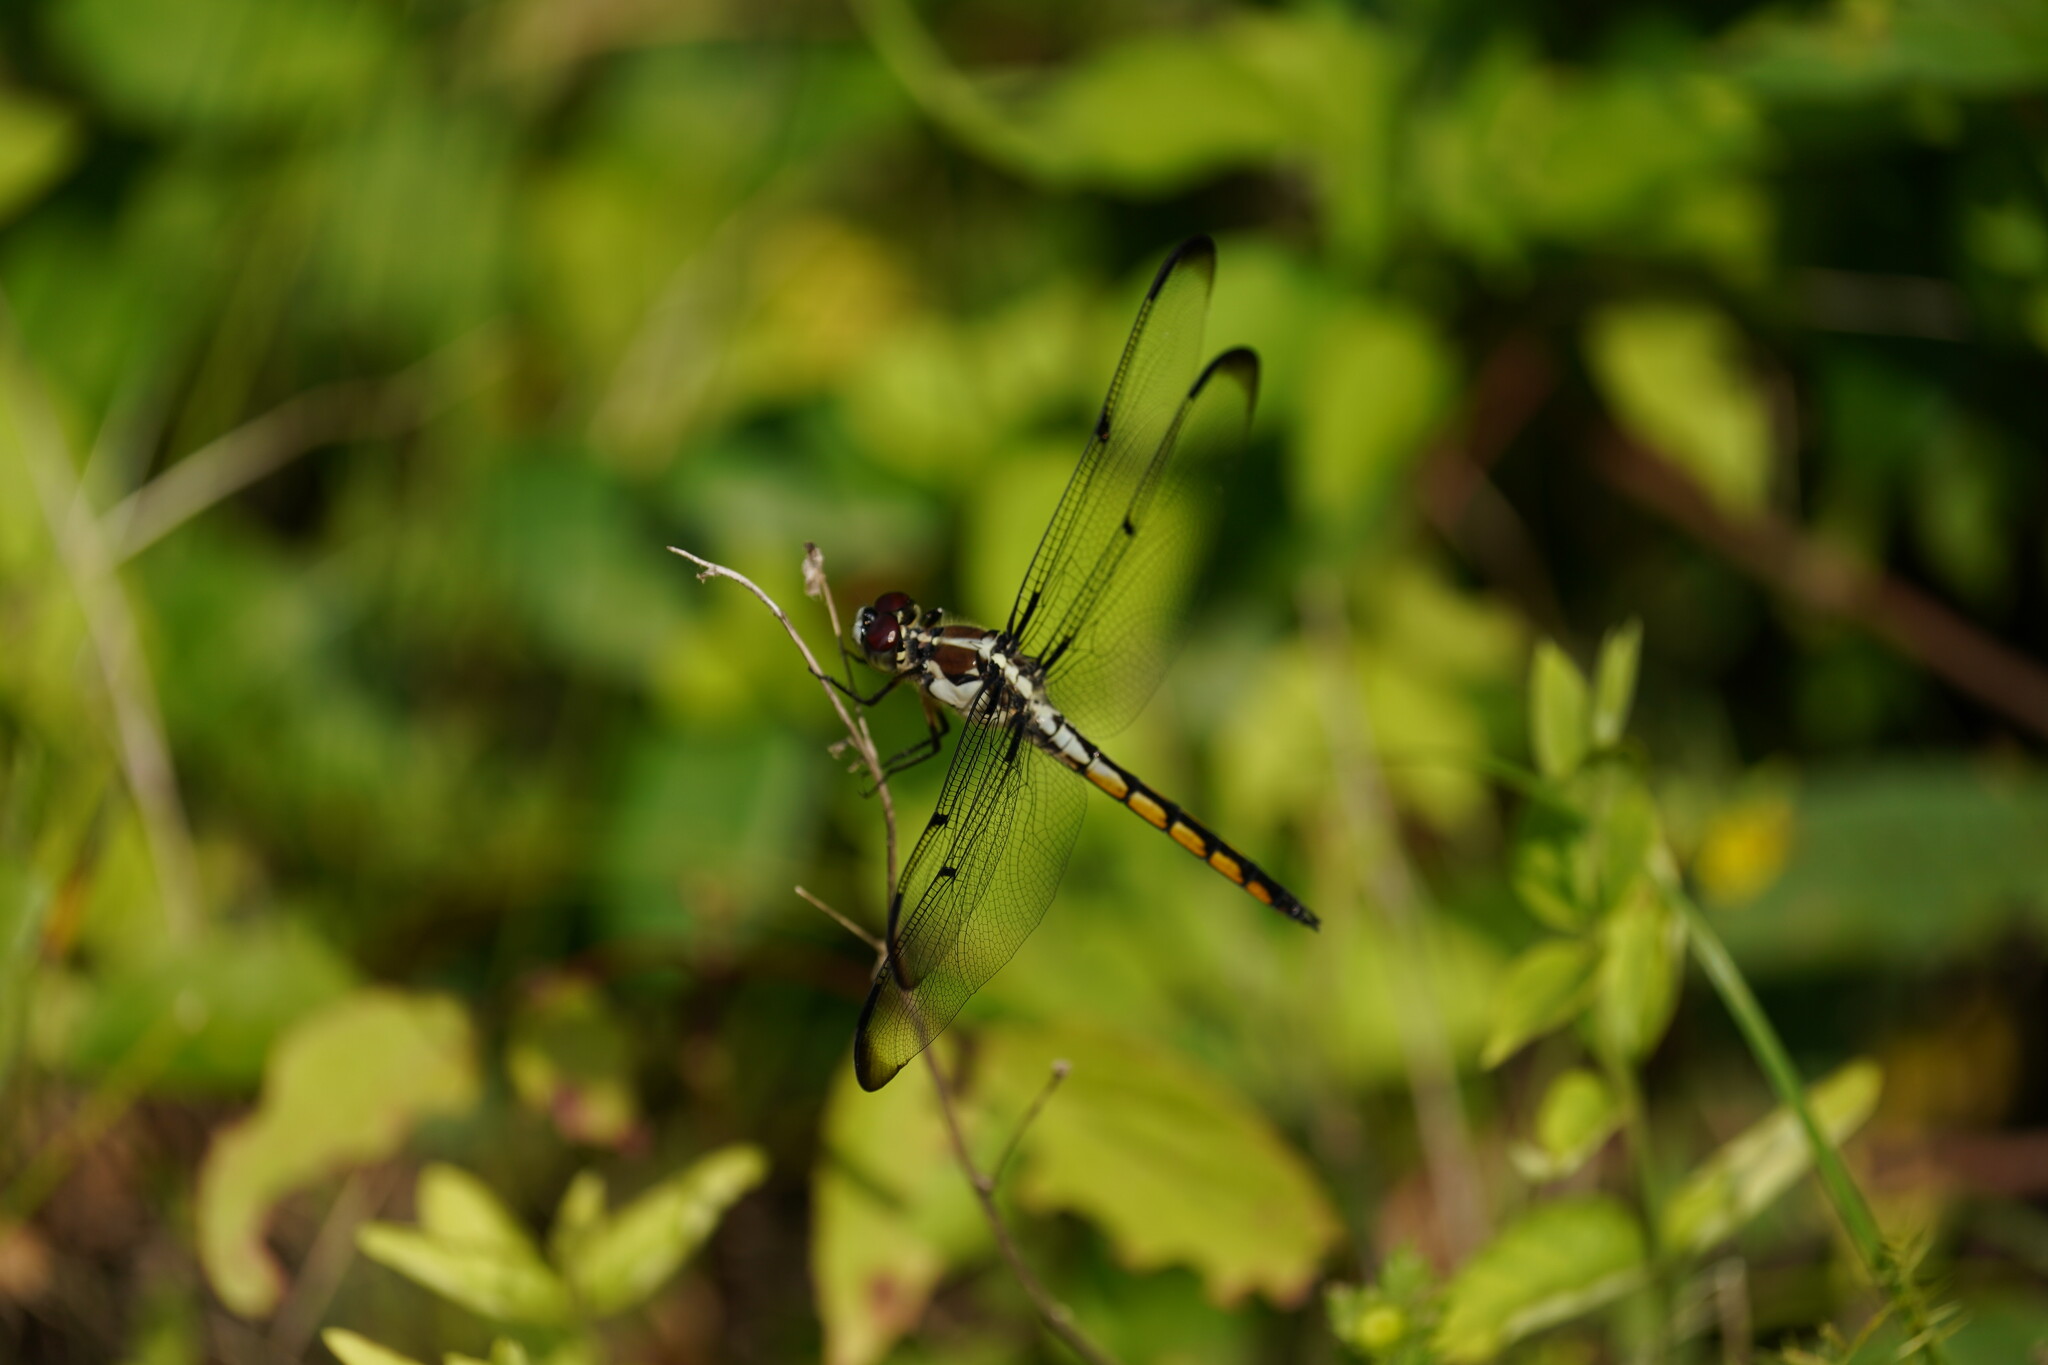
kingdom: Animalia
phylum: Arthropoda
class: Insecta
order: Odonata
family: Libellulidae
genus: Libellula
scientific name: Libellula vibrans
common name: Great blue skimmer
